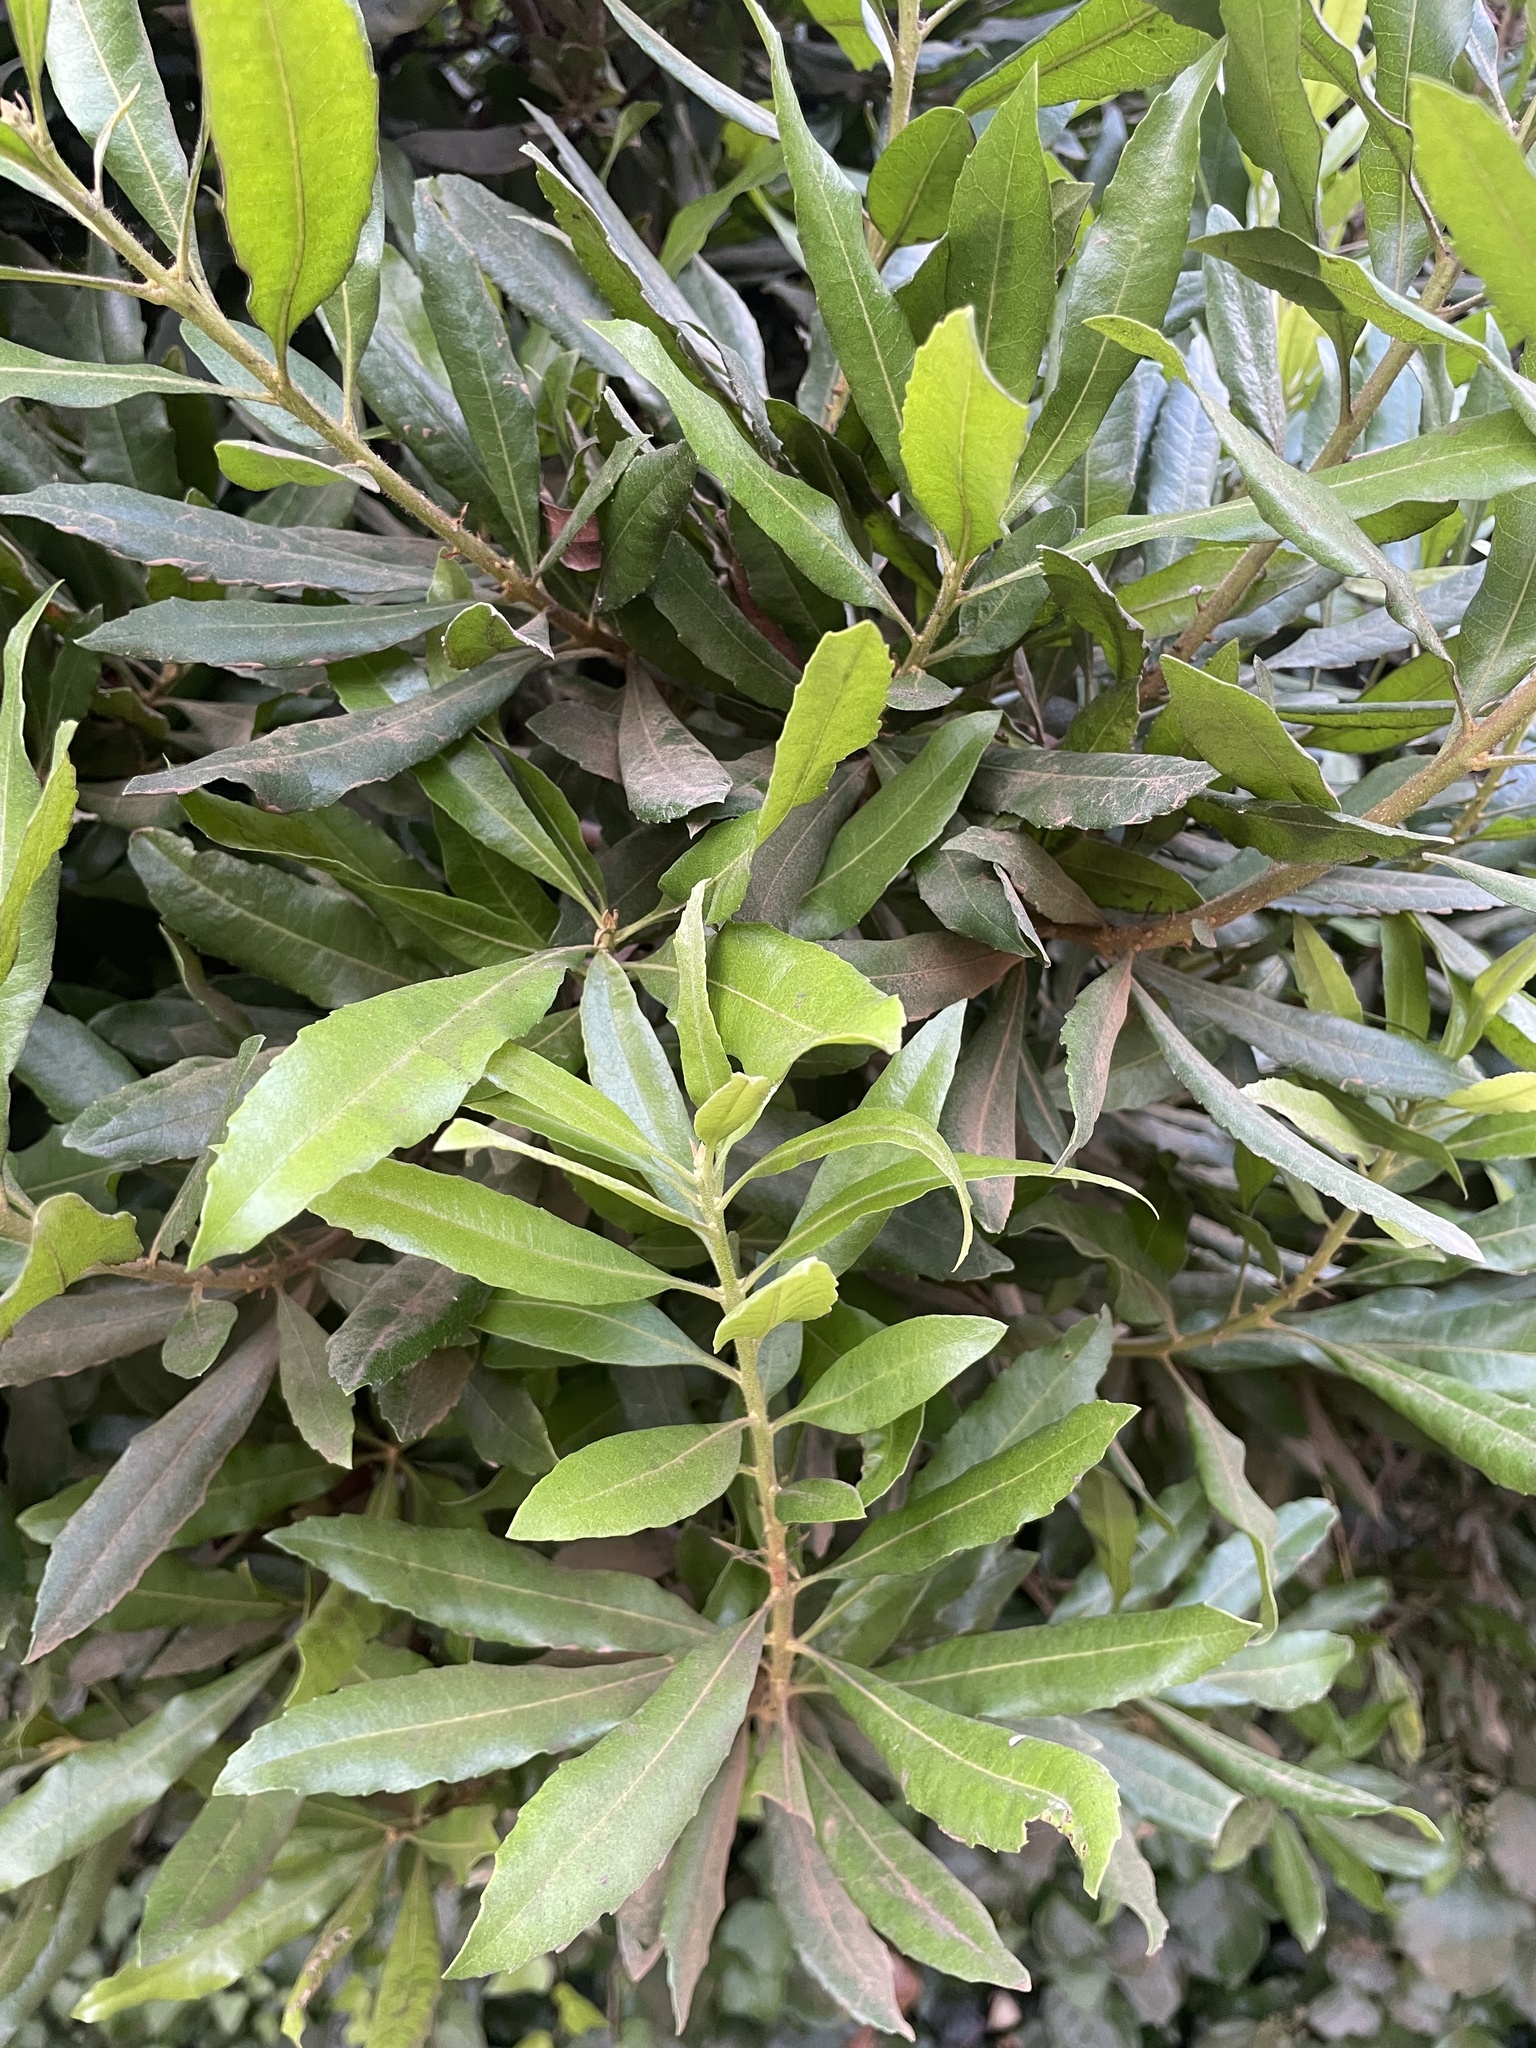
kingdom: Plantae
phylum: Tracheophyta
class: Magnoliopsida
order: Fagales
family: Myricaceae
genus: Morella
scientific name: Morella californica
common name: California wax-myrtle
